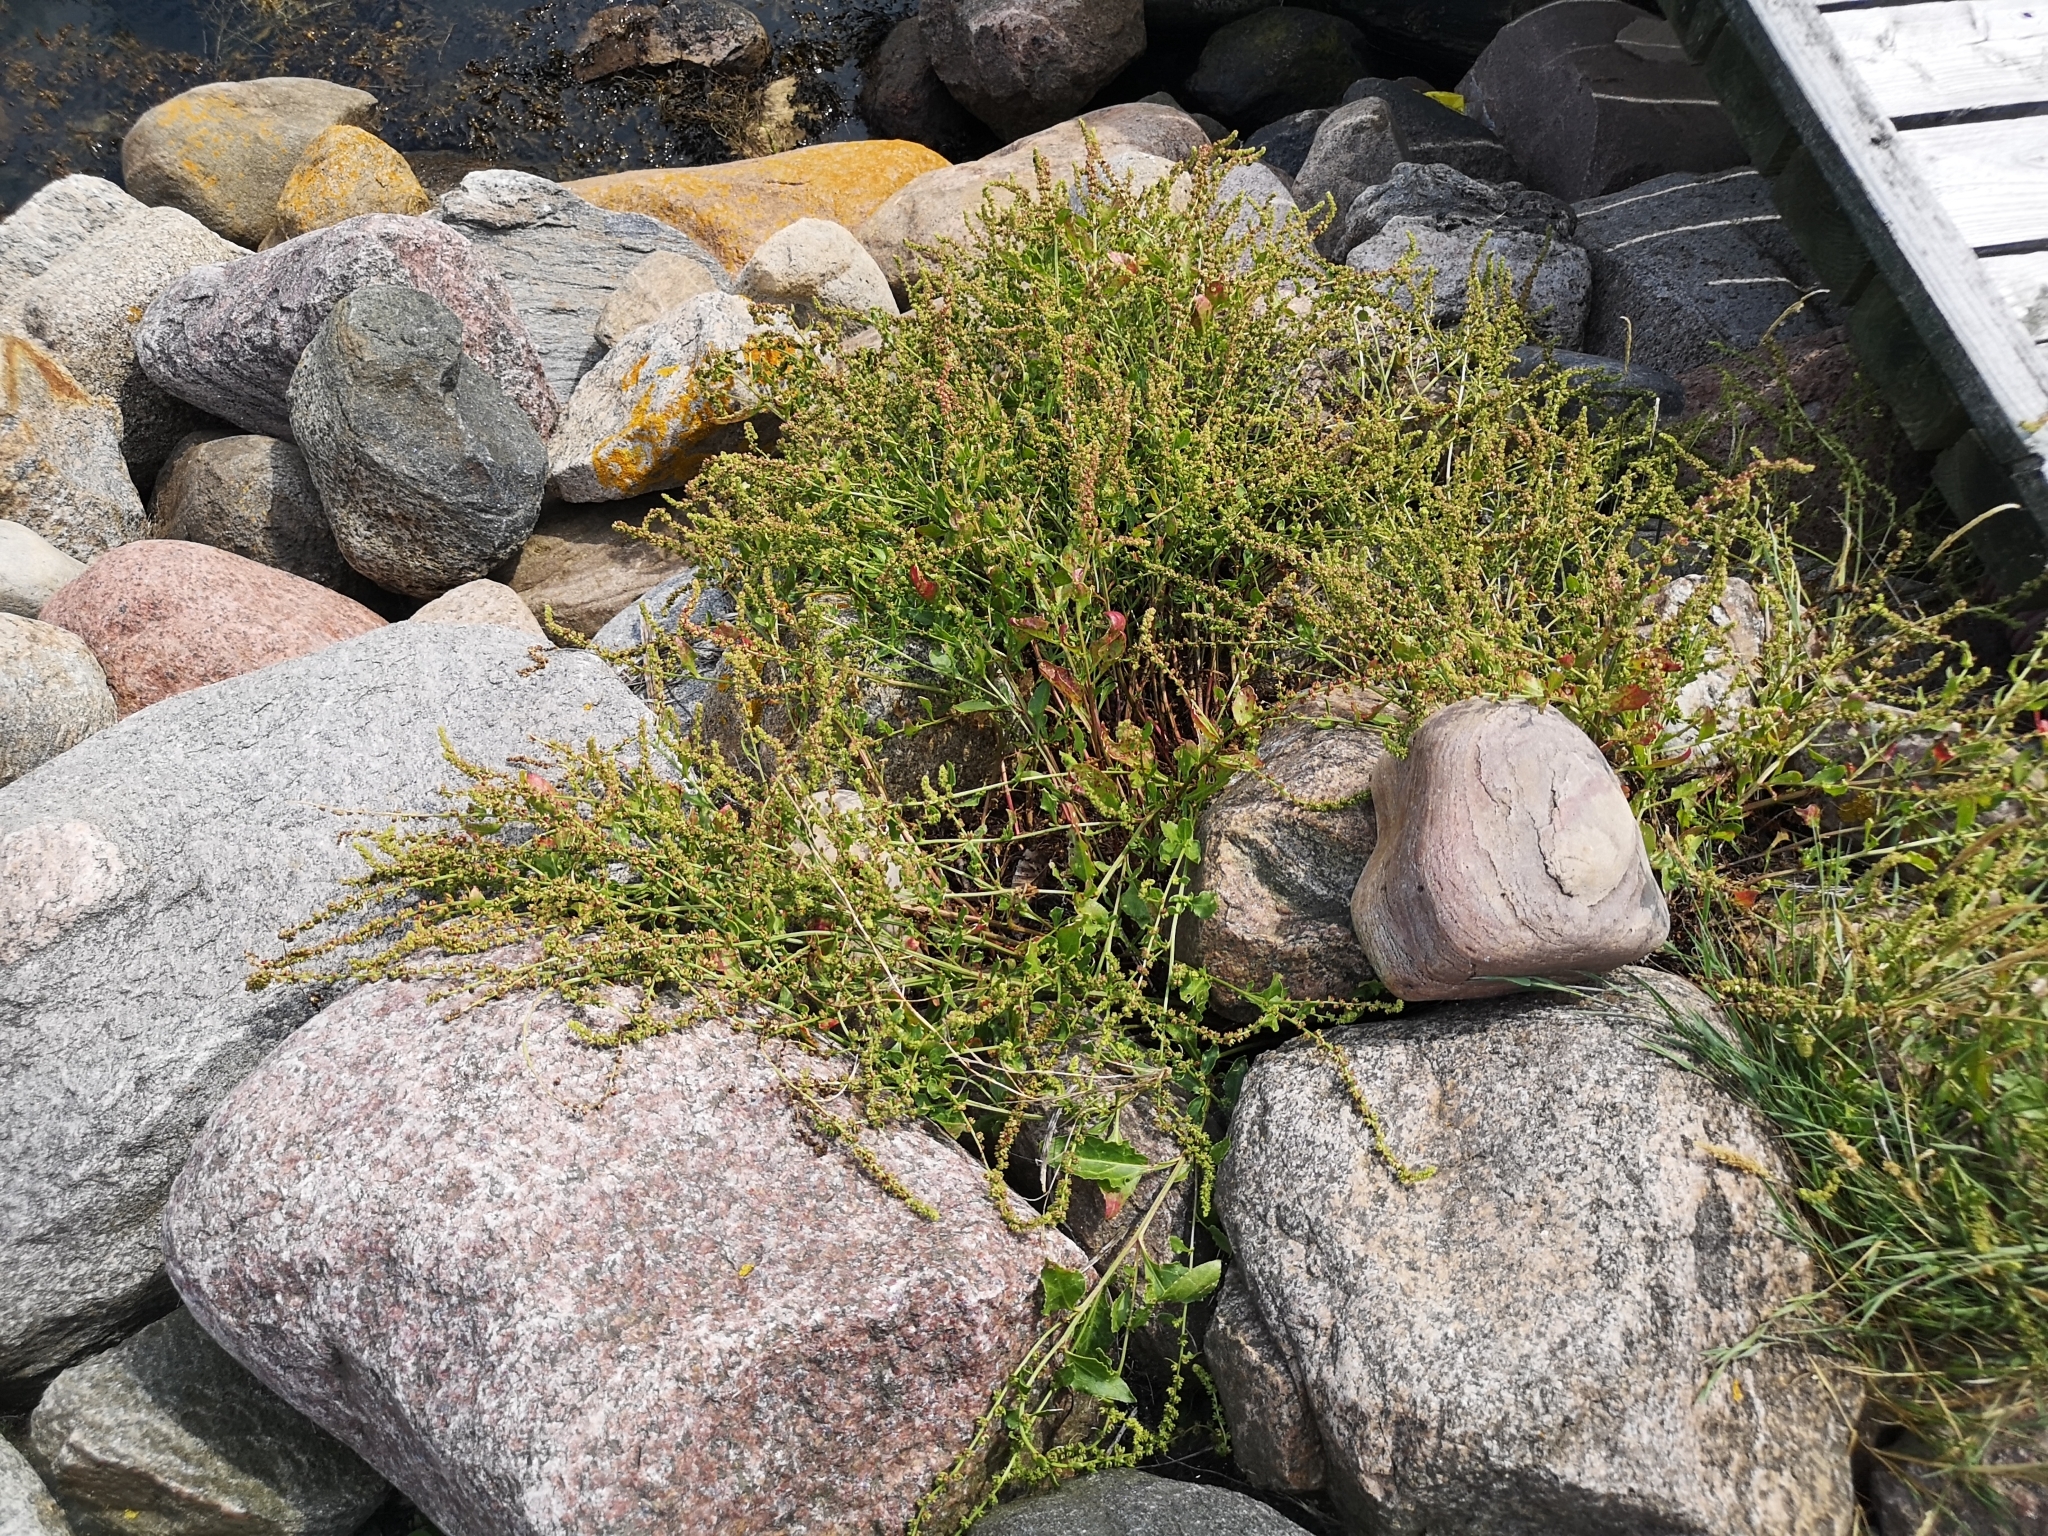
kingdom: Plantae
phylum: Tracheophyta
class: Magnoliopsida
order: Caryophyllales
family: Amaranthaceae
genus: Beta
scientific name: Beta vulgaris
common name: Beet
